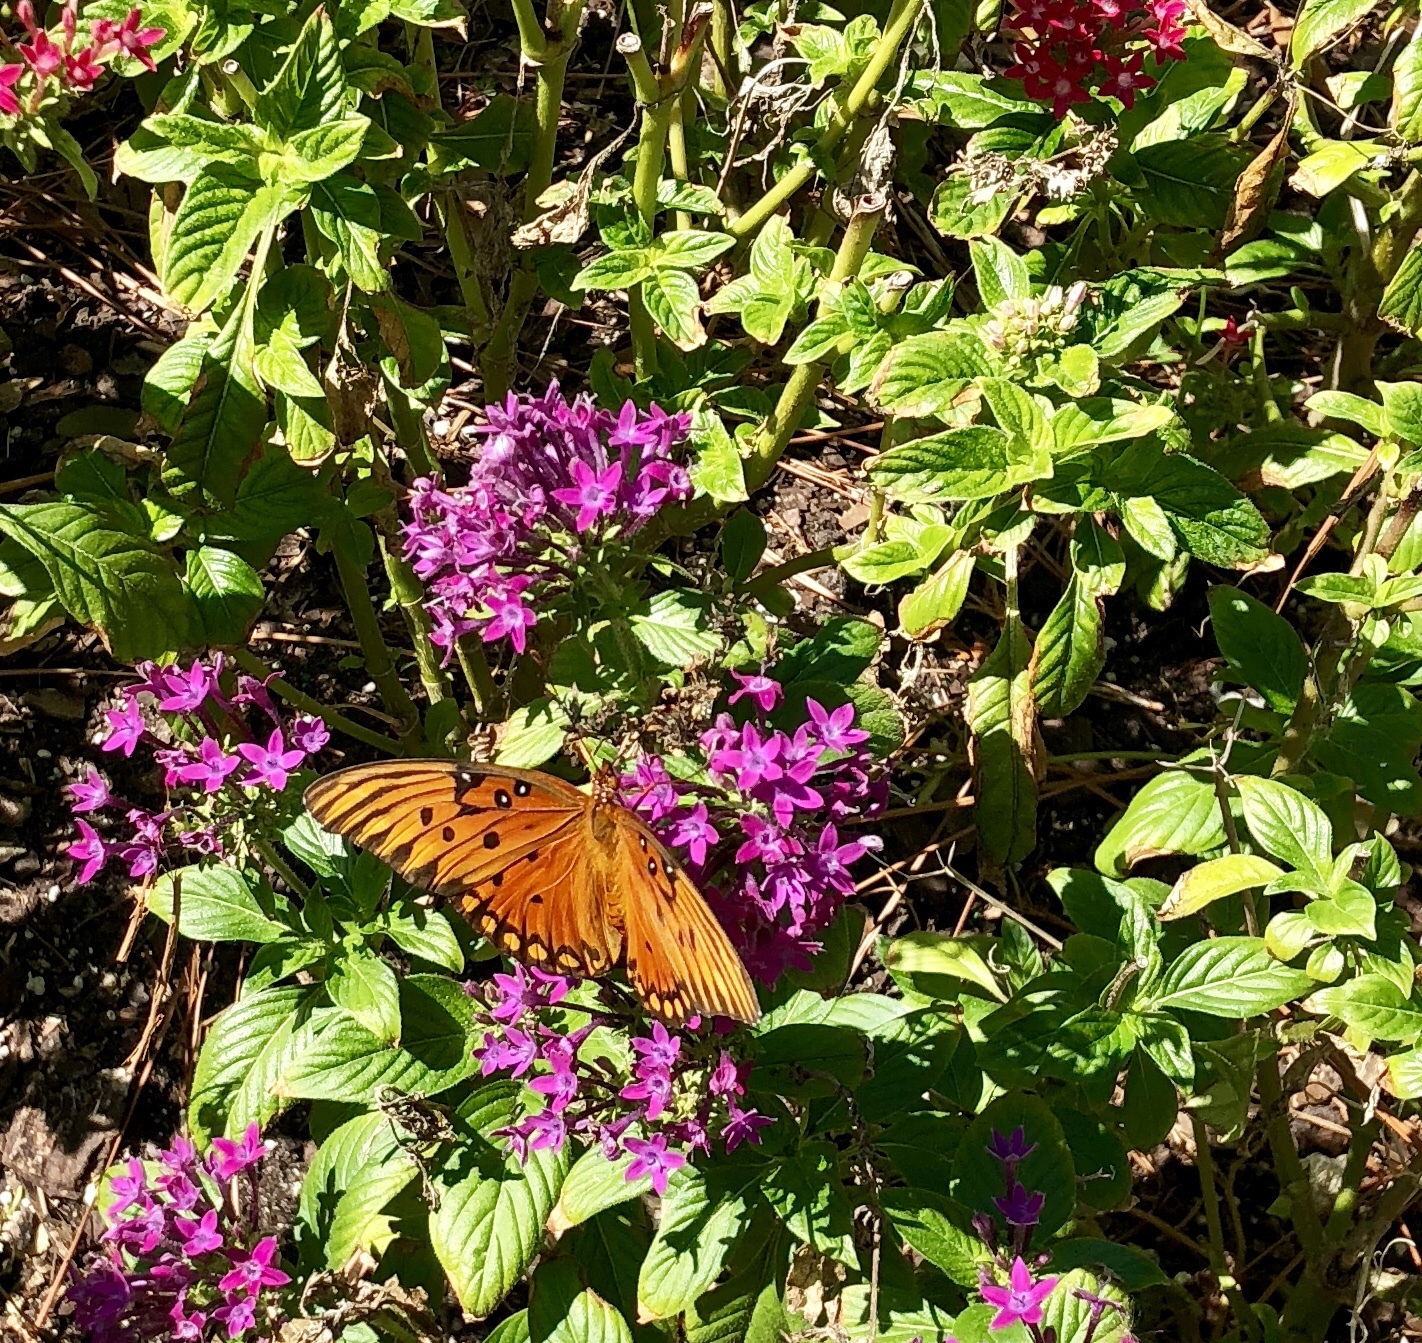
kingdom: Animalia
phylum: Arthropoda
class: Insecta
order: Lepidoptera
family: Nymphalidae
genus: Dione
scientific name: Dione vanillae
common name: Gulf fritillary
